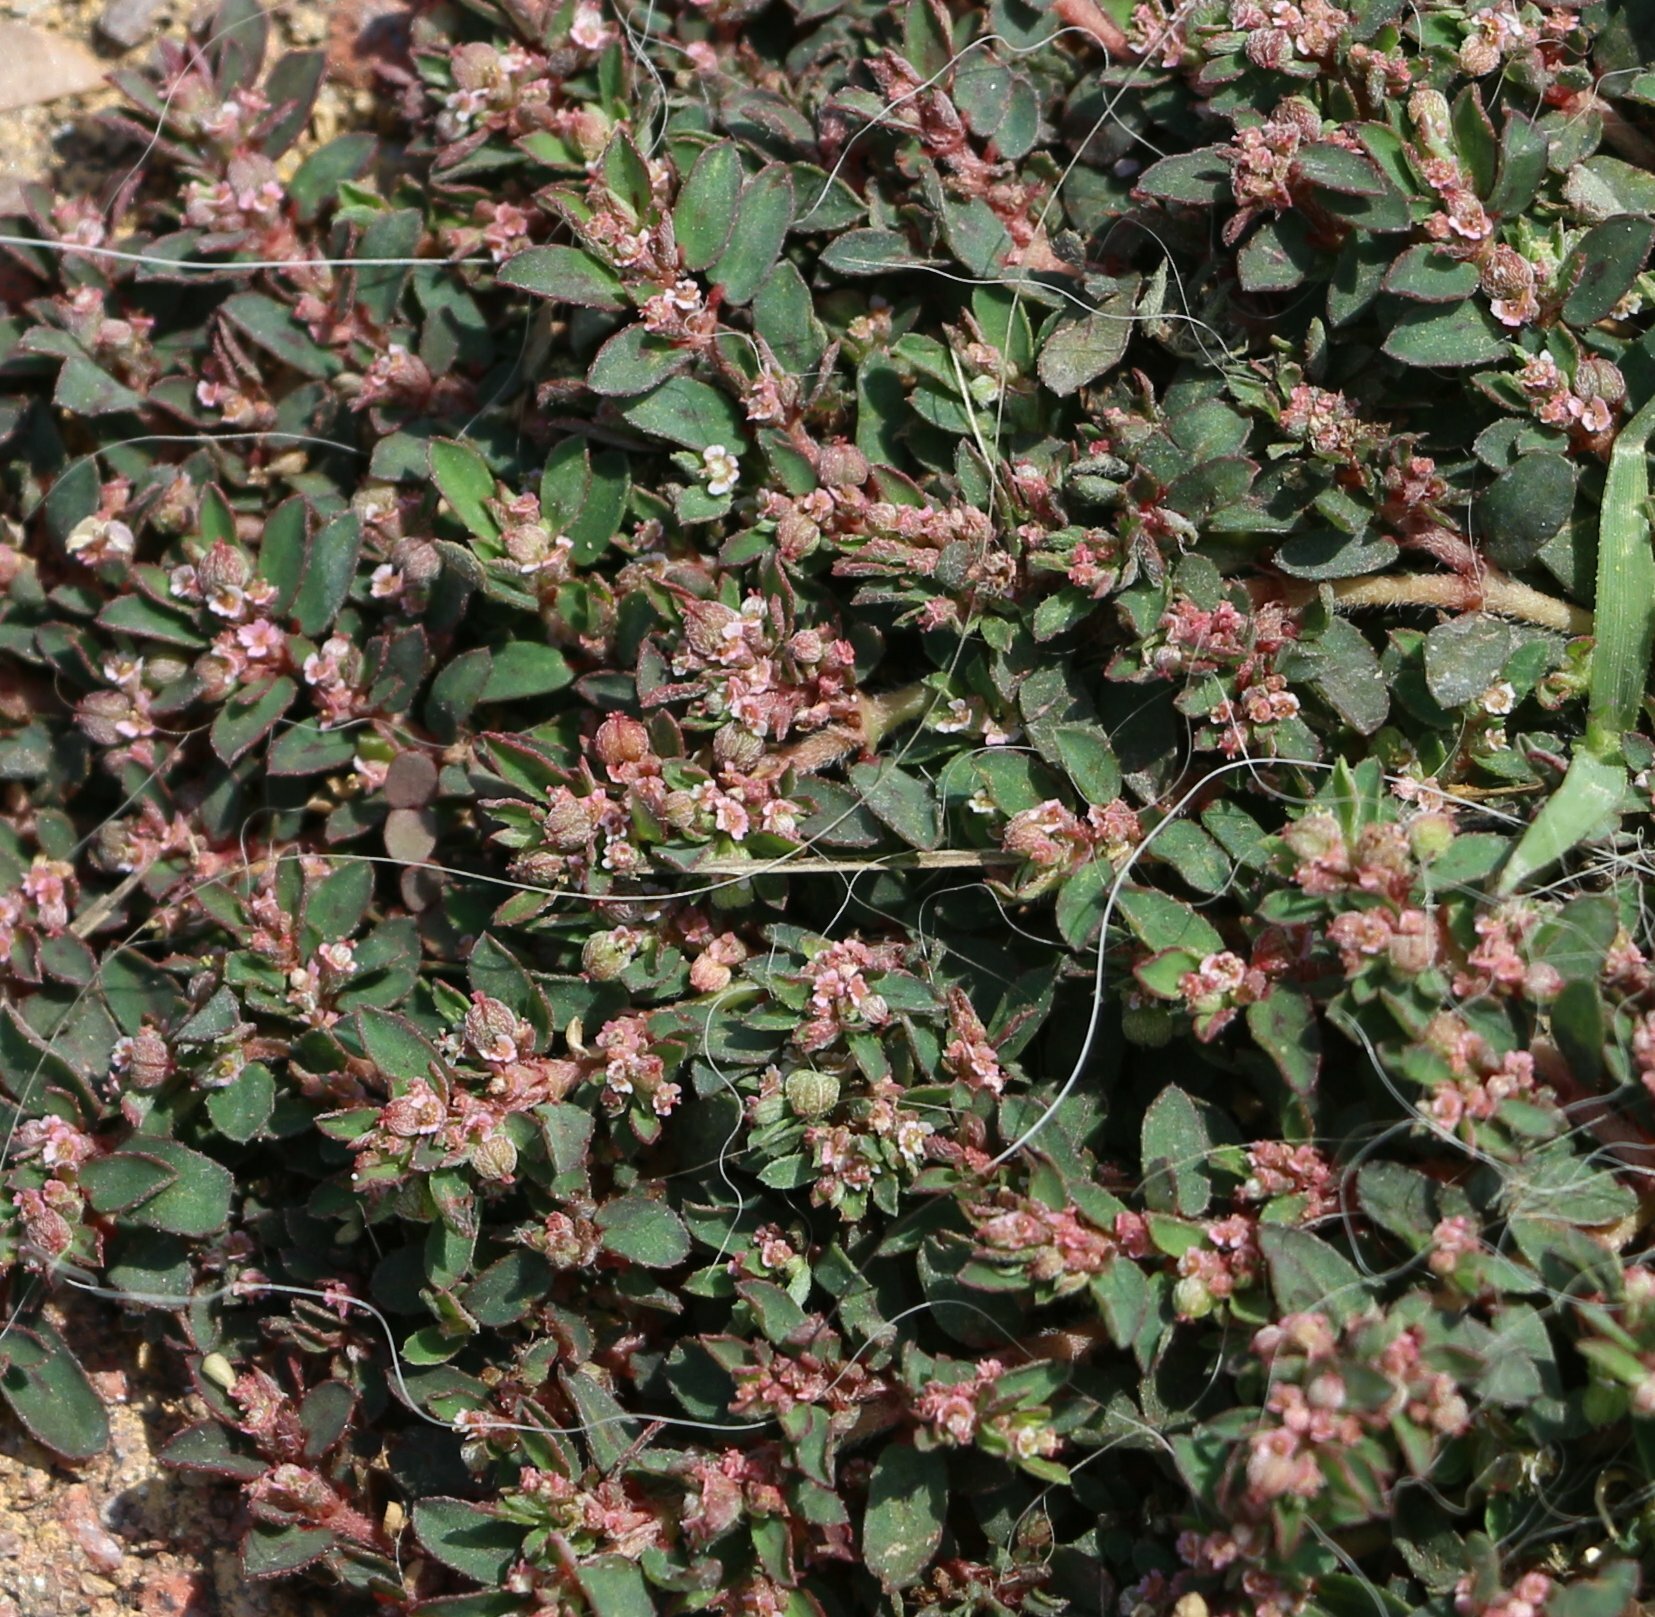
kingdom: Plantae
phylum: Tracheophyta
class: Magnoliopsida
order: Malpighiales
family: Euphorbiaceae
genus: Euphorbia
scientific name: Euphorbia maculata
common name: Spotted spurge
